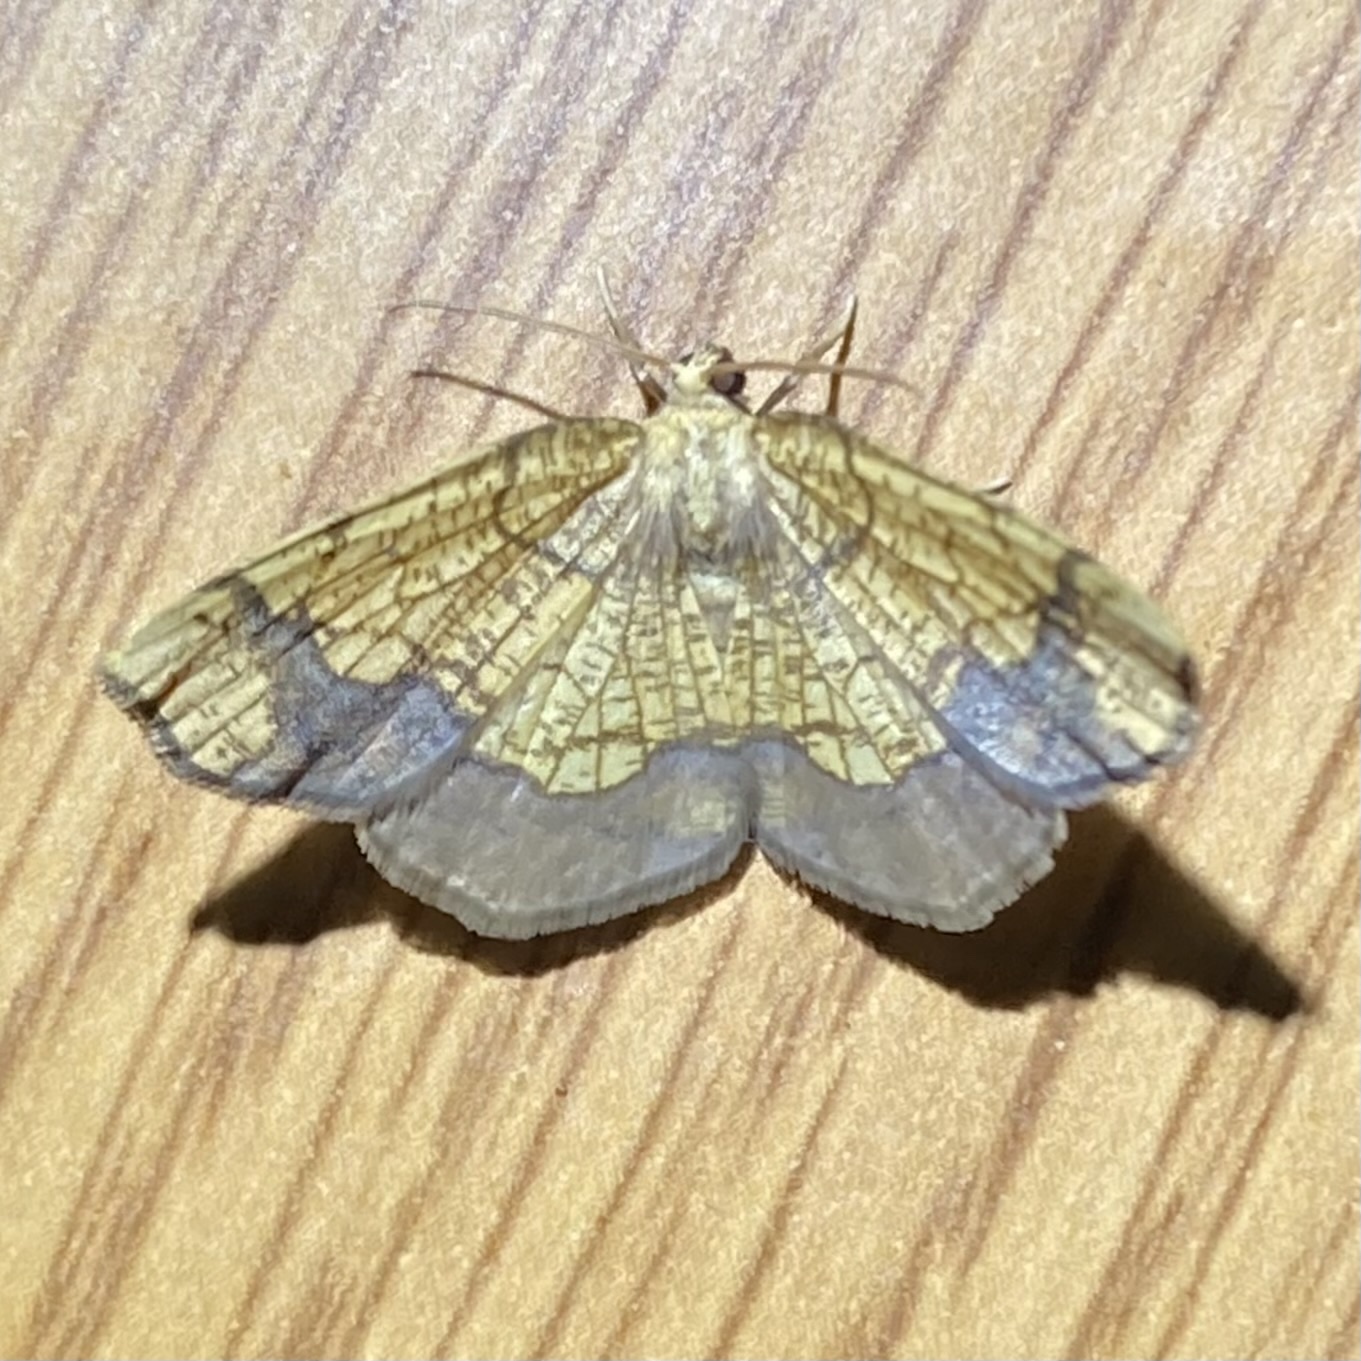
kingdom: Animalia
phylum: Arthropoda
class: Insecta
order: Lepidoptera
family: Geometridae
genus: Nematocampa
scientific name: Nematocampa resistaria
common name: Horned spanworm moth
